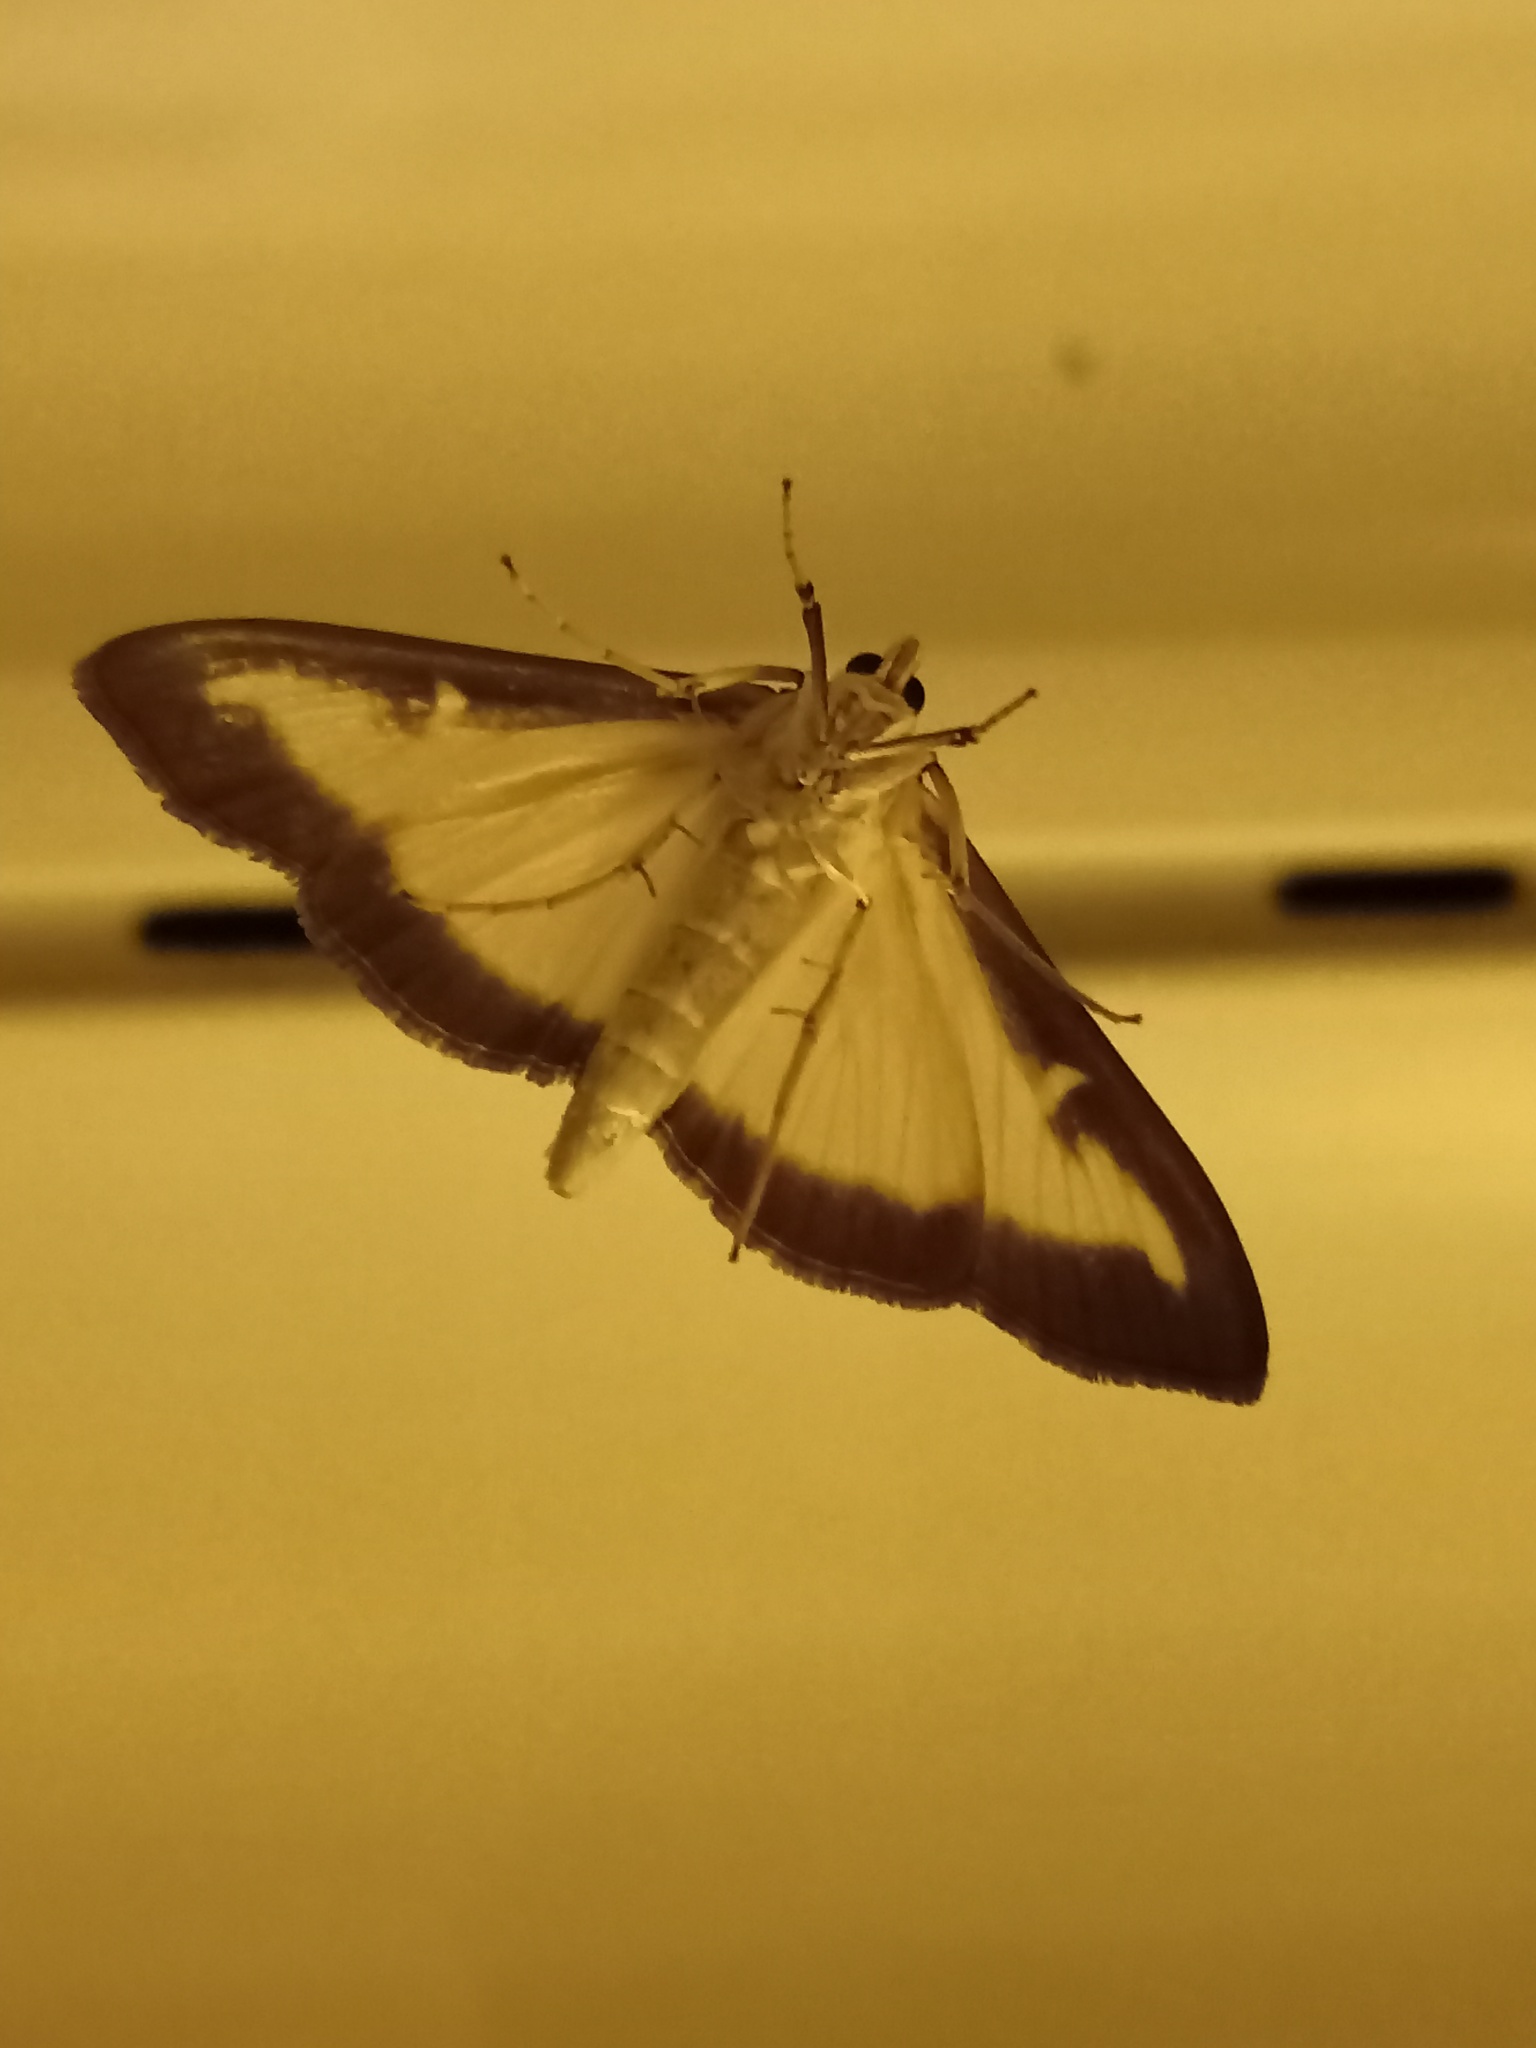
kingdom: Animalia
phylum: Arthropoda
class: Insecta
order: Lepidoptera
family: Crambidae
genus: Cydalima
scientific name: Cydalima perspectalis
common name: Box tree moth
